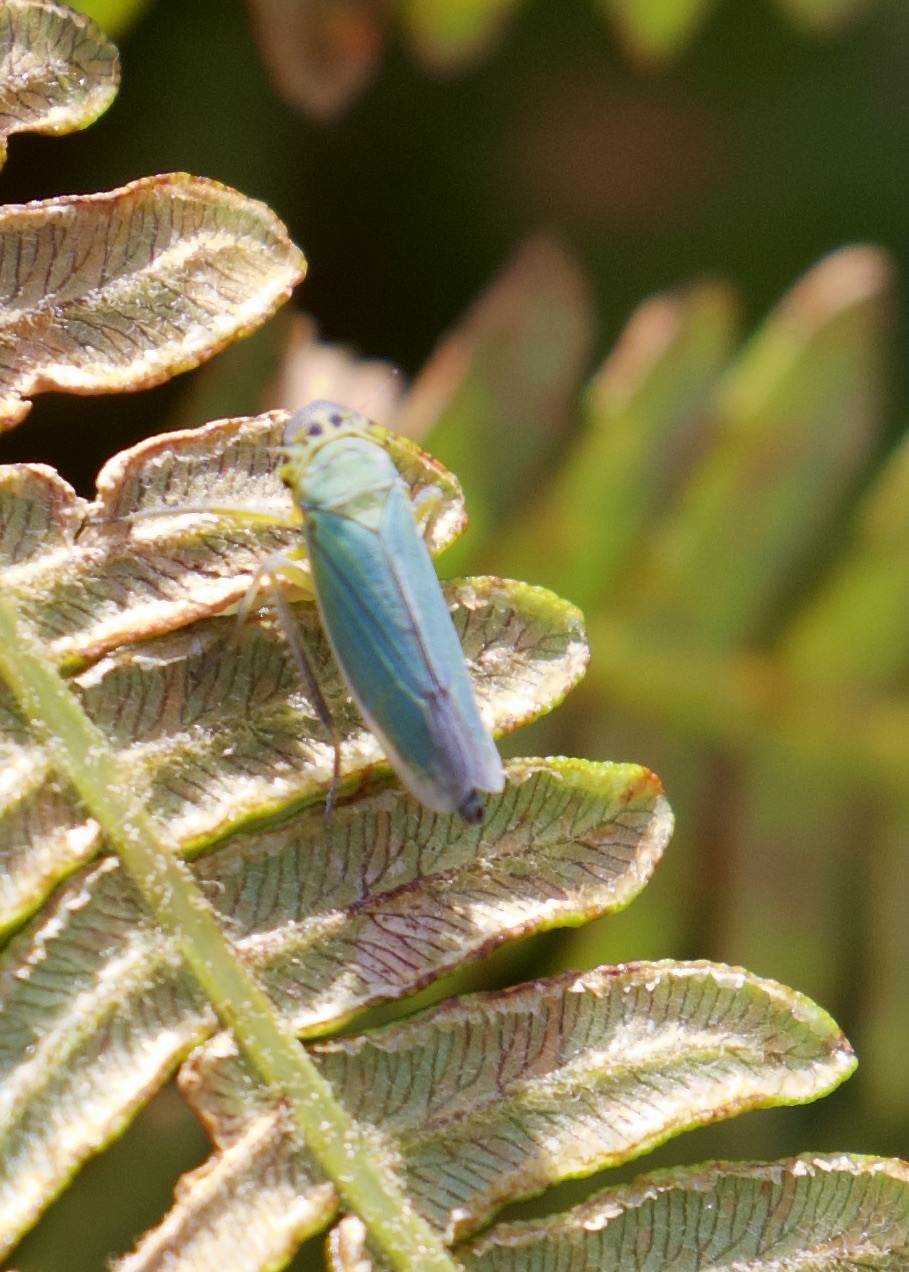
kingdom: Animalia
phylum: Arthropoda
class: Insecta
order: Hemiptera
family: Cicadellidae
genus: Cicadella
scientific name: Cicadella viridis
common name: Leafhopper
